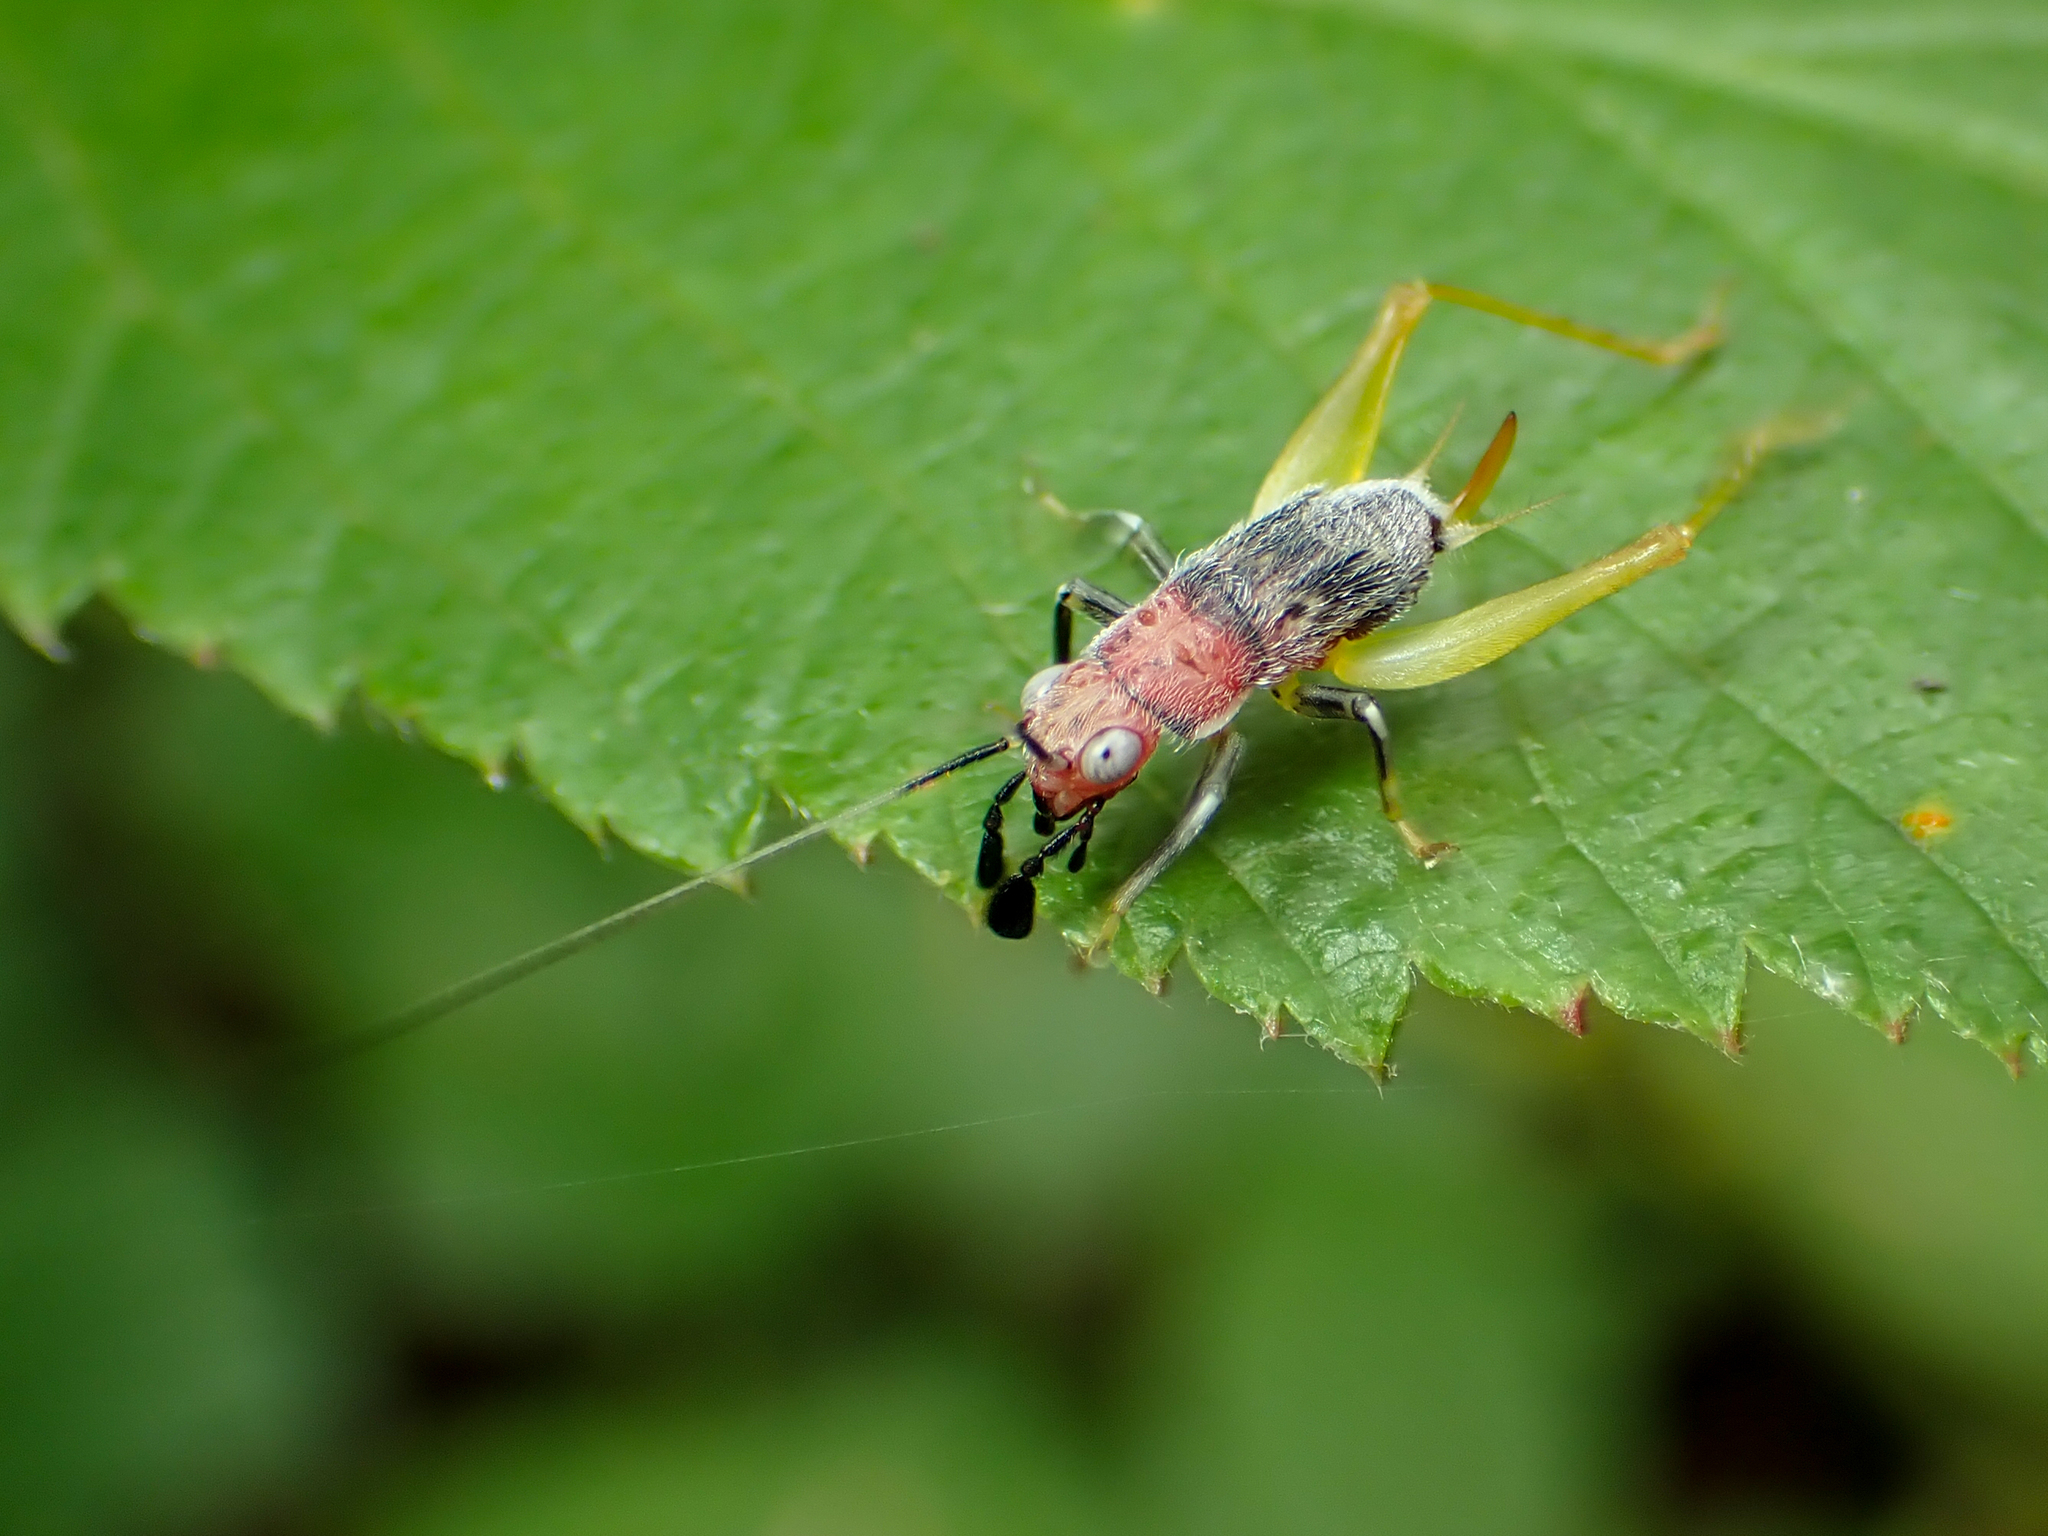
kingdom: Animalia
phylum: Arthropoda
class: Insecta
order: Orthoptera
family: Trigonidiidae
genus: Phyllopalpus
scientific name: Phyllopalpus pulchellus
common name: Handsome trig
